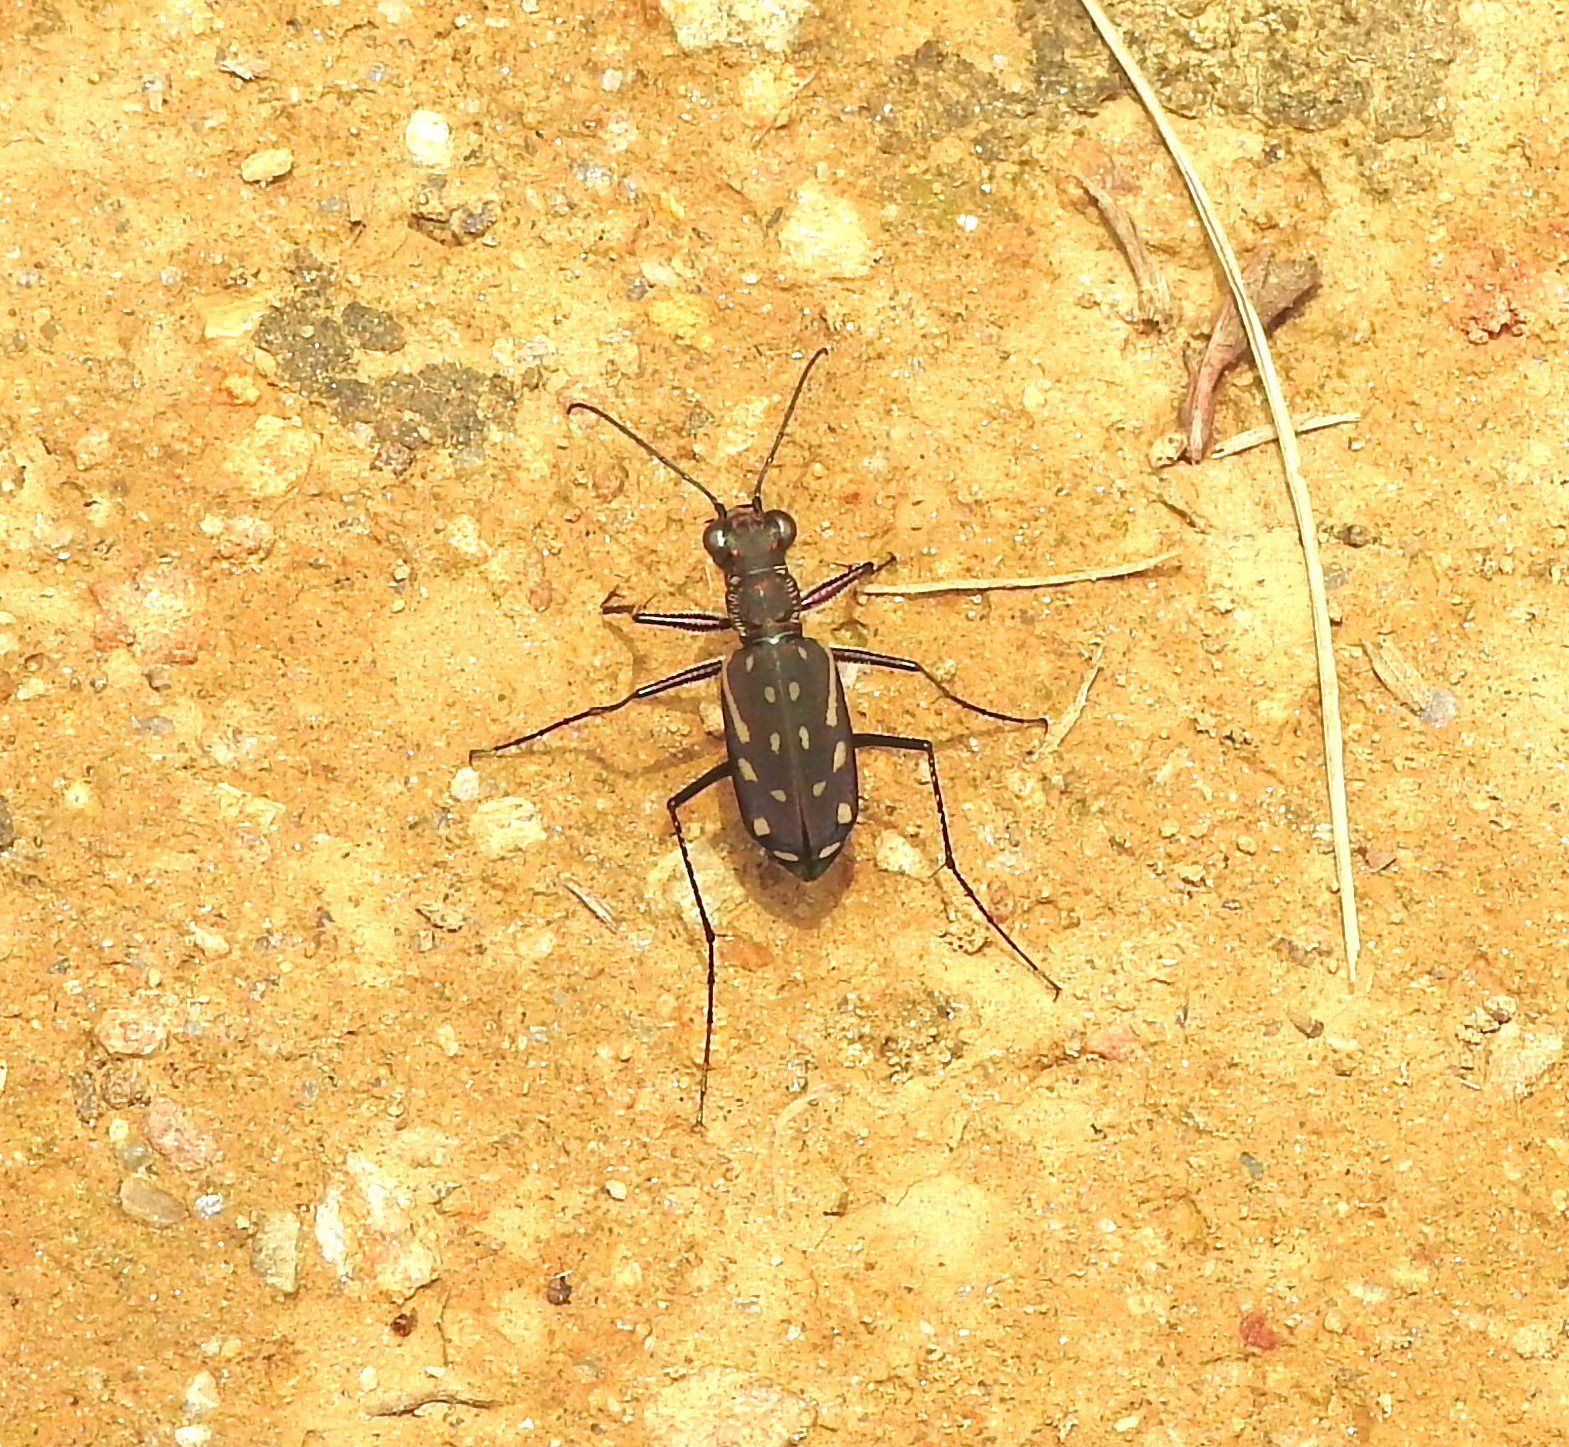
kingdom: Animalia
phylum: Arthropoda
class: Insecta
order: Coleoptera
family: Carabidae
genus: Lophyra
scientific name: Lophyra striolata
